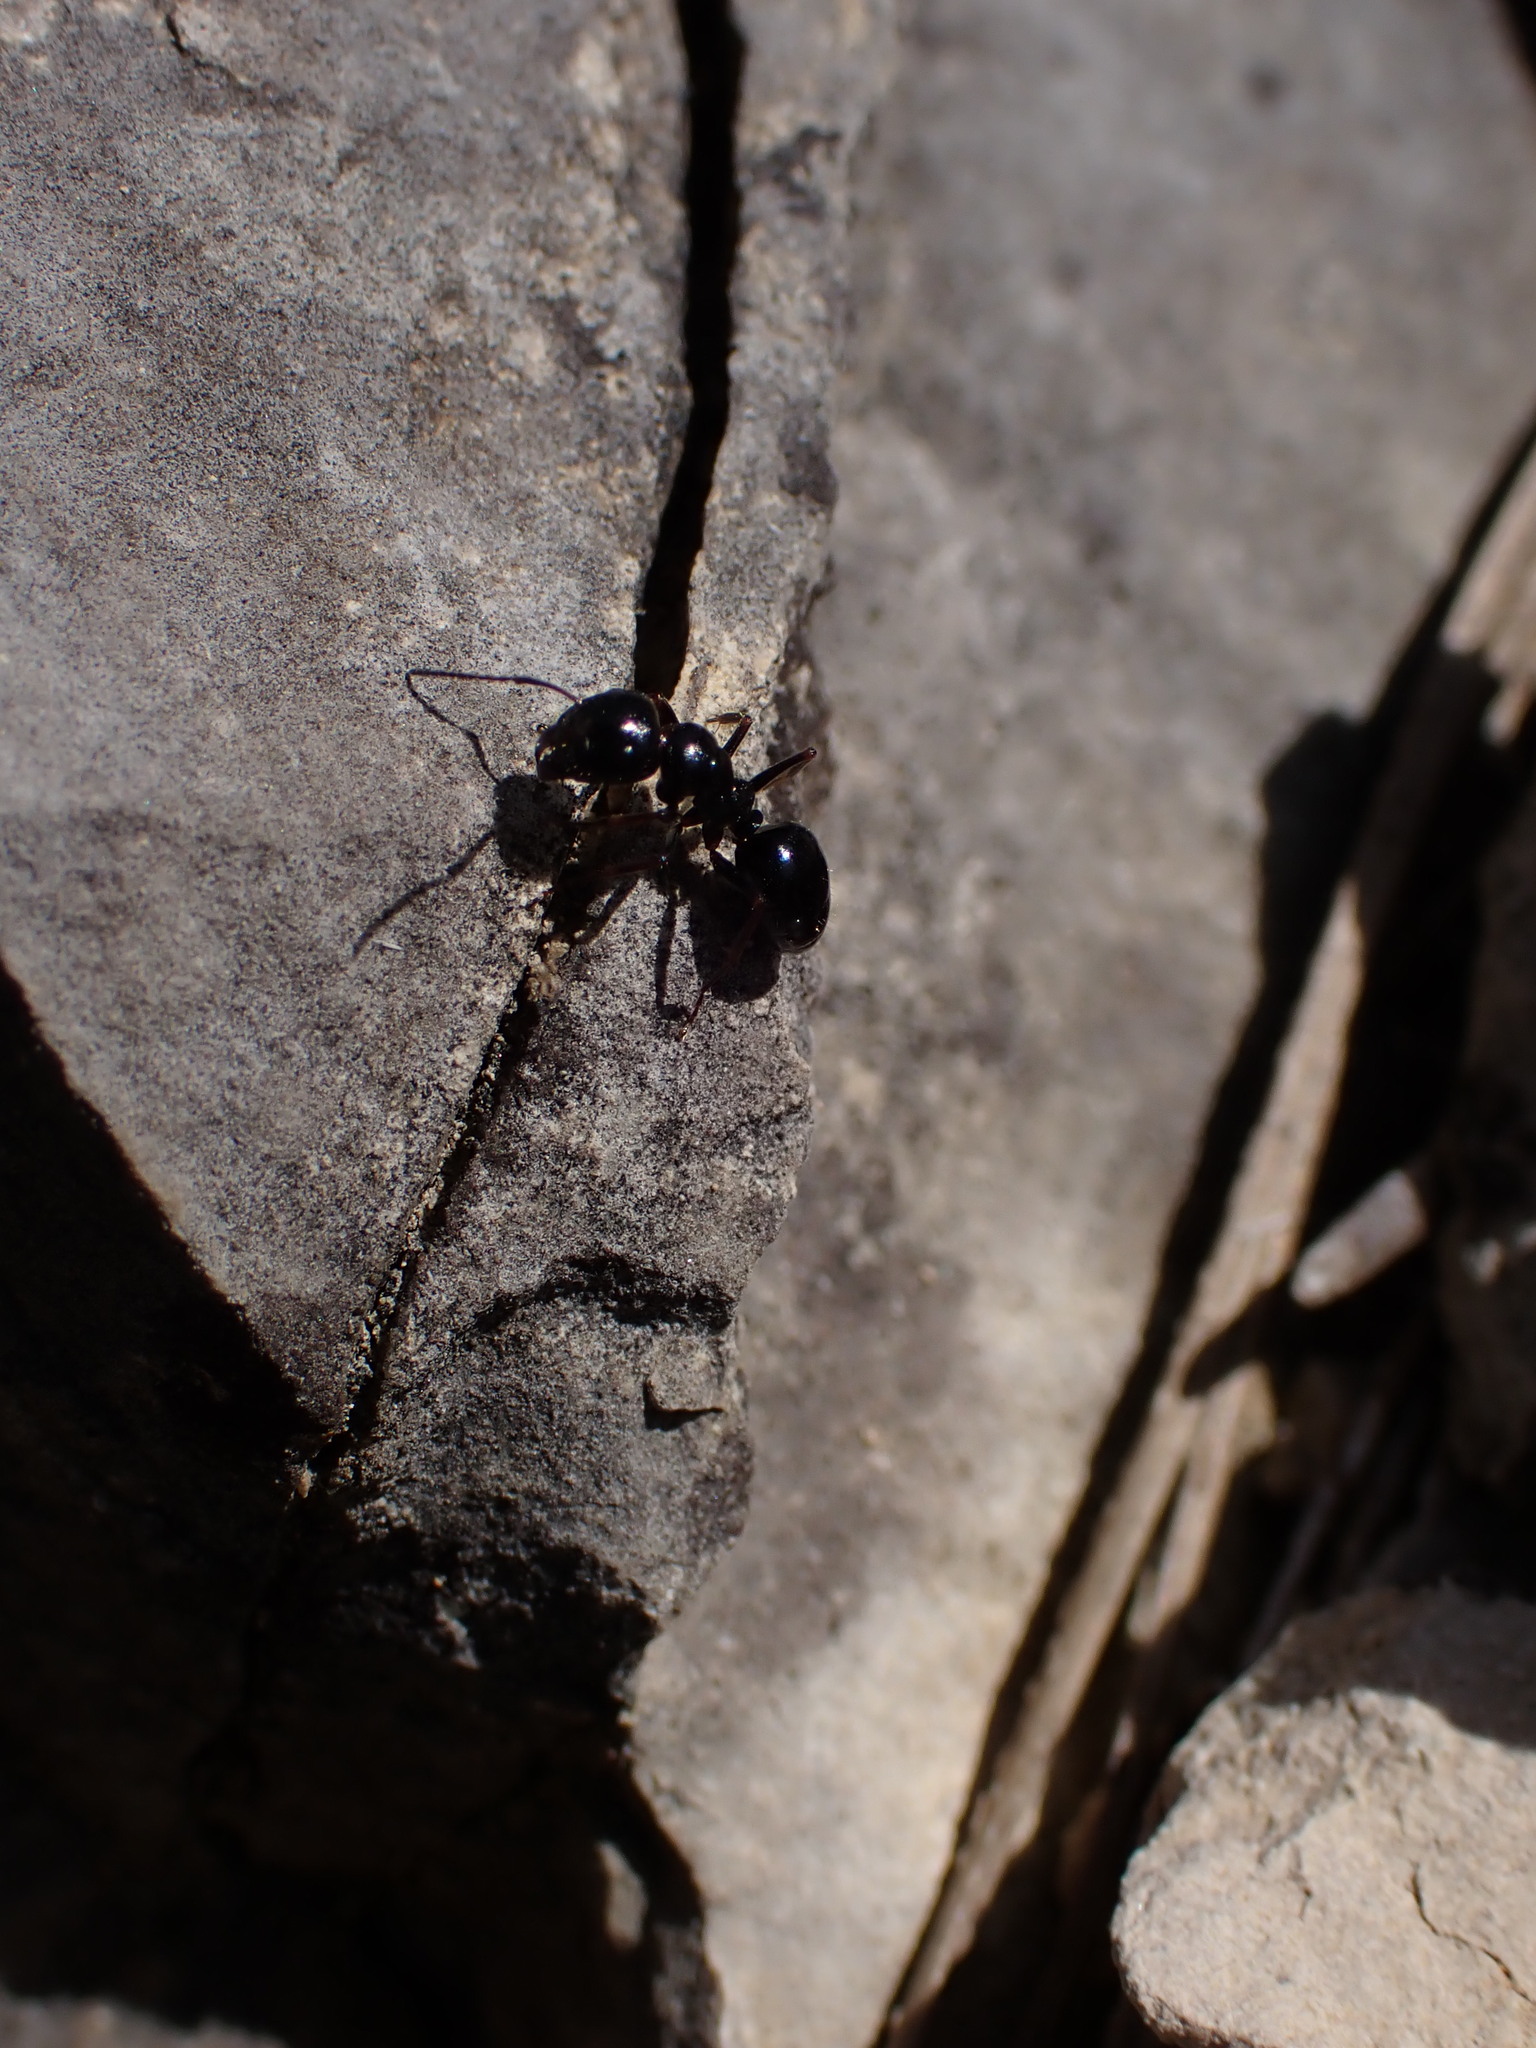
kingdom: Animalia
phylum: Arthropoda
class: Insecta
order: Hymenoptera
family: Formicidae
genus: Camponotus
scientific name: Camponotus piceus
